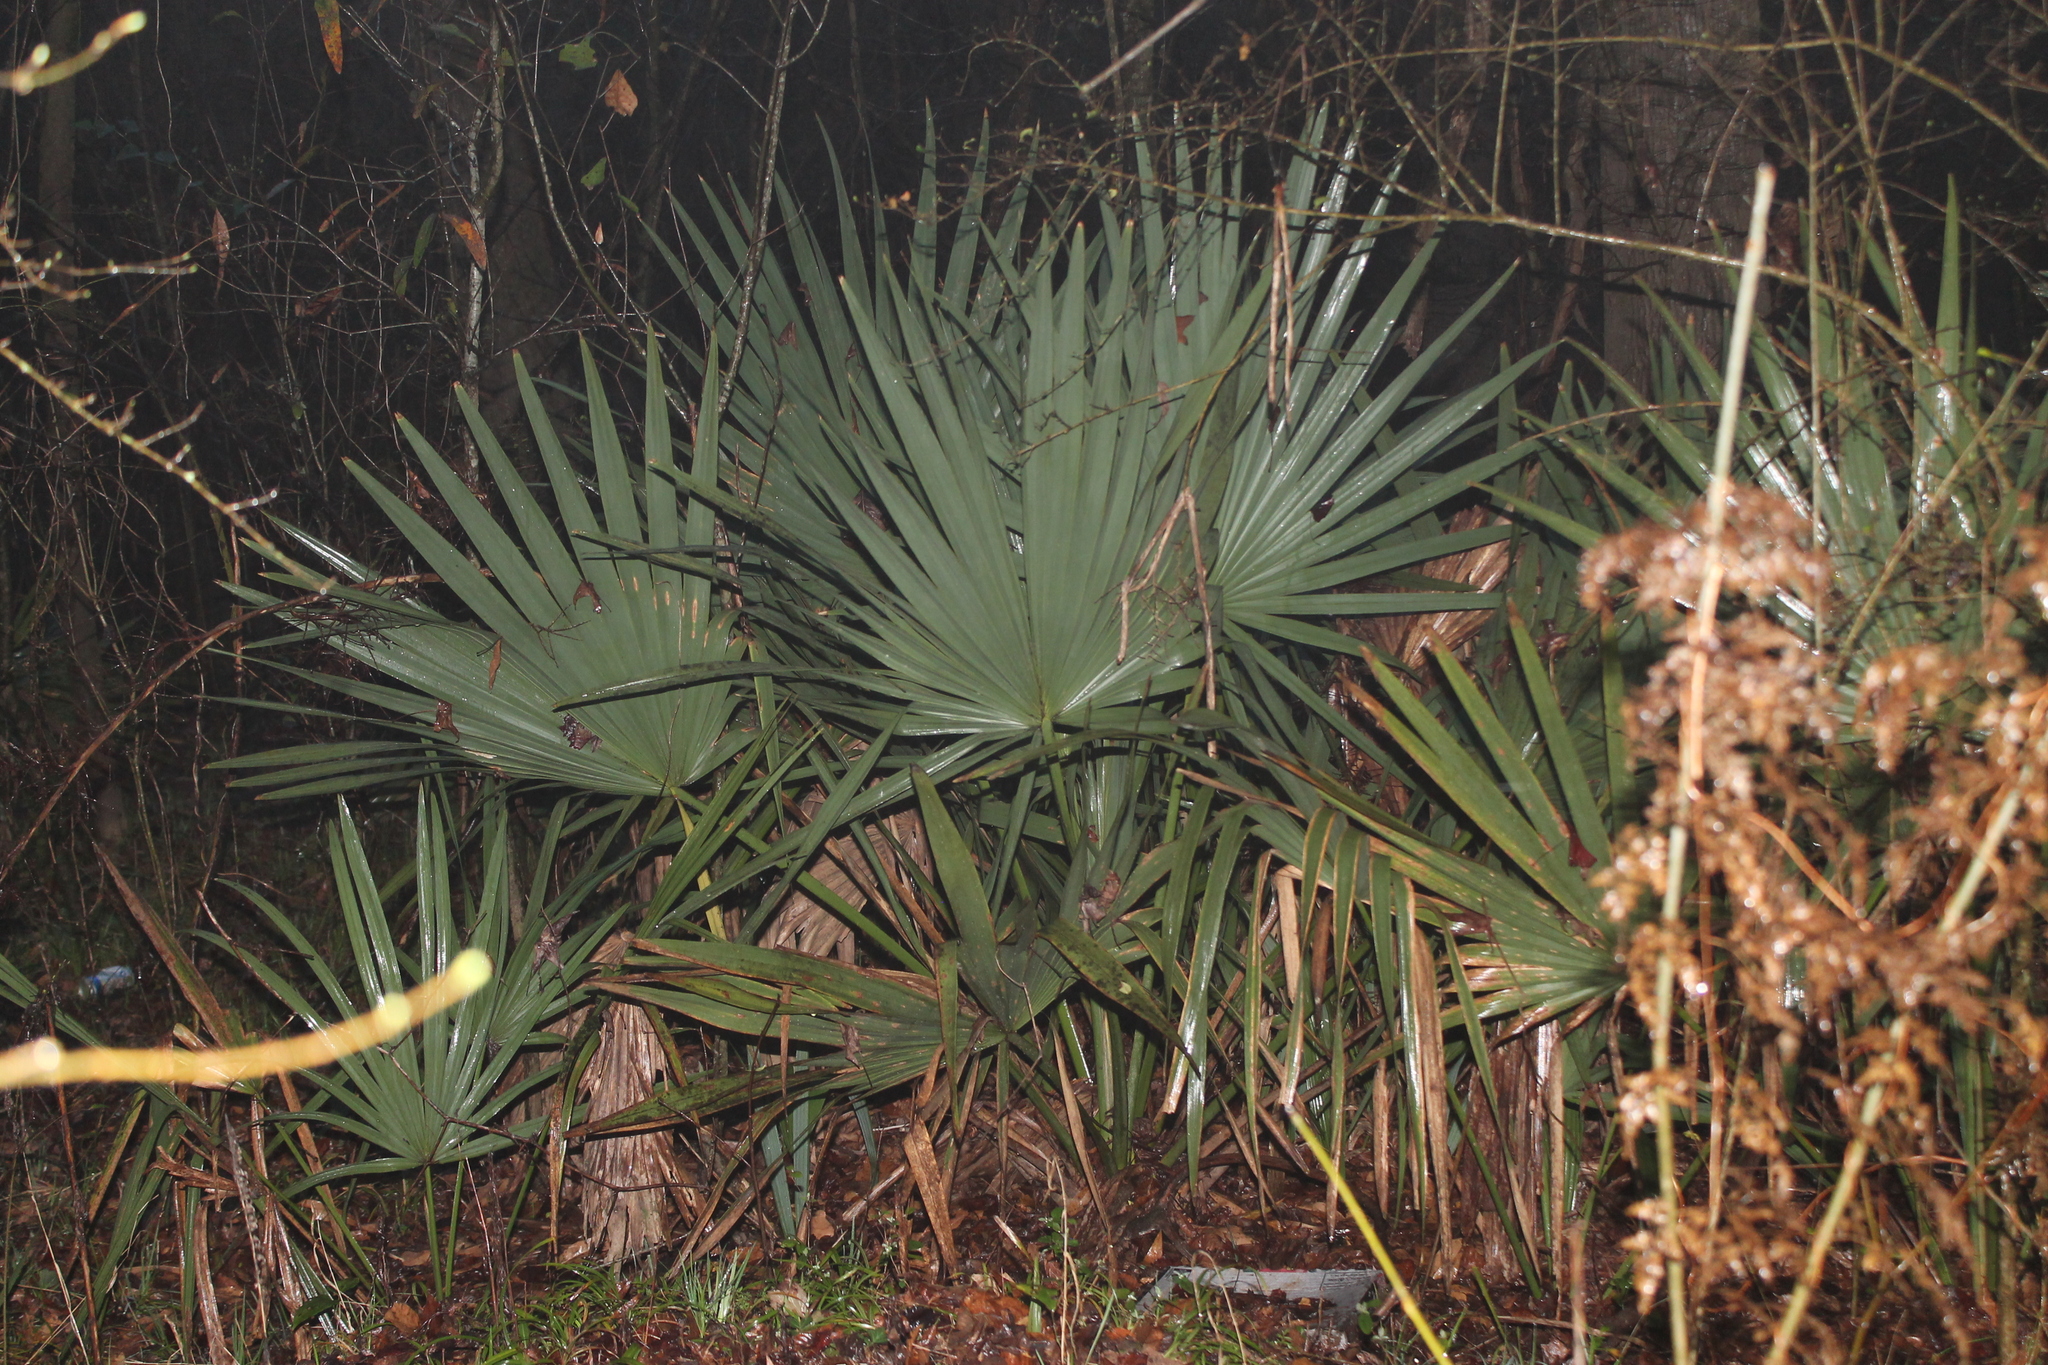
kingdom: Plantae
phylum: Tracheophyta
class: Liliopsida
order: Arecales
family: Arecaceae
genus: Sabal
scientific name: Sabal minor
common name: Dwarf palmetto
